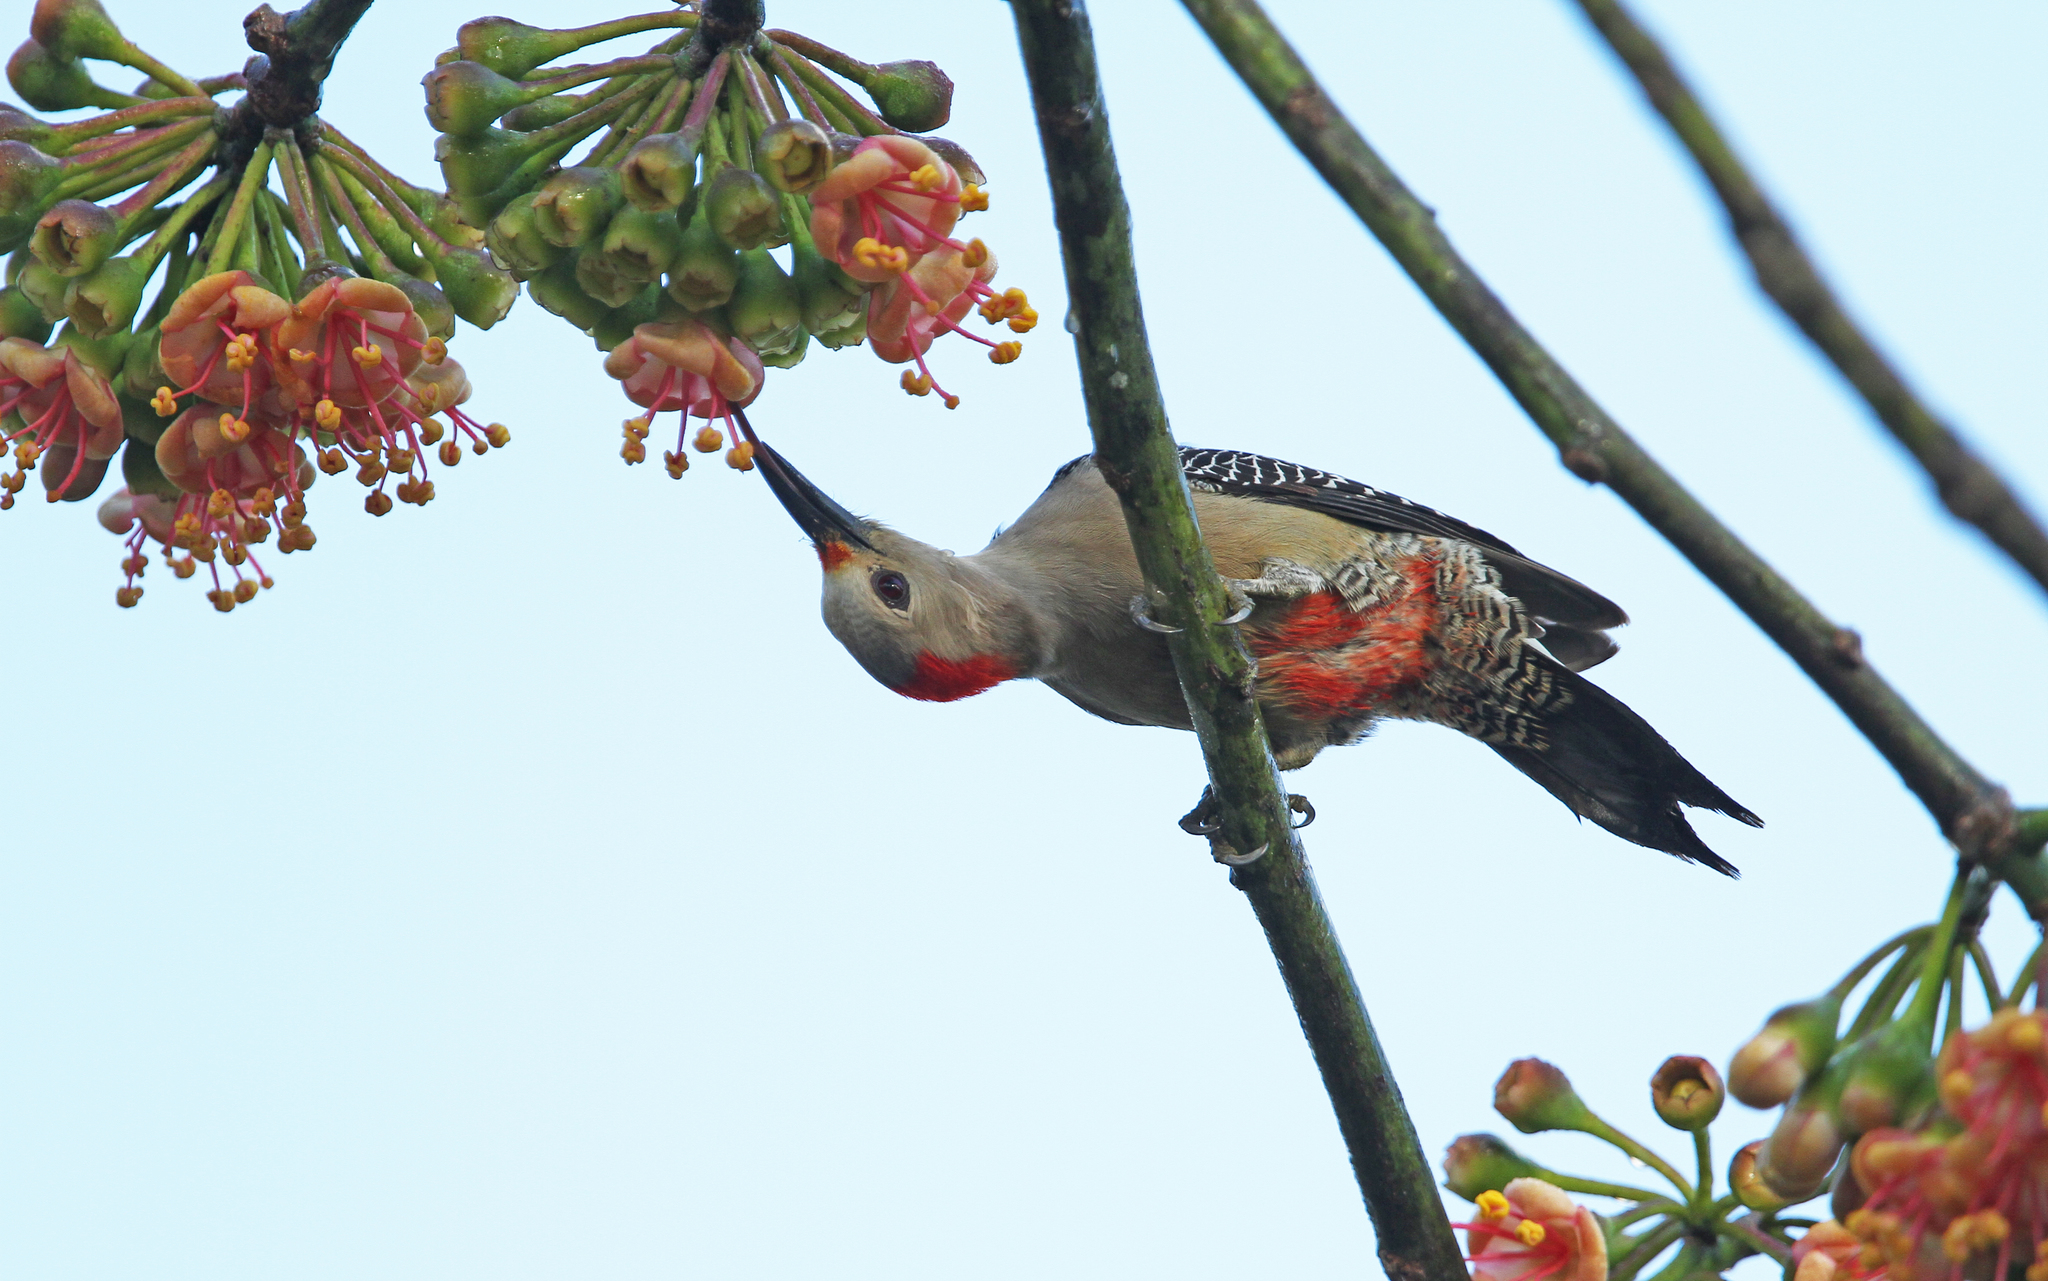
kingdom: Animalia
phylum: Chordata
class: Aves
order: Piciformes
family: Picidae
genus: Melanerpes
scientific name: Melanerpes aurifrons
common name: Golden-fronted woodpecker
